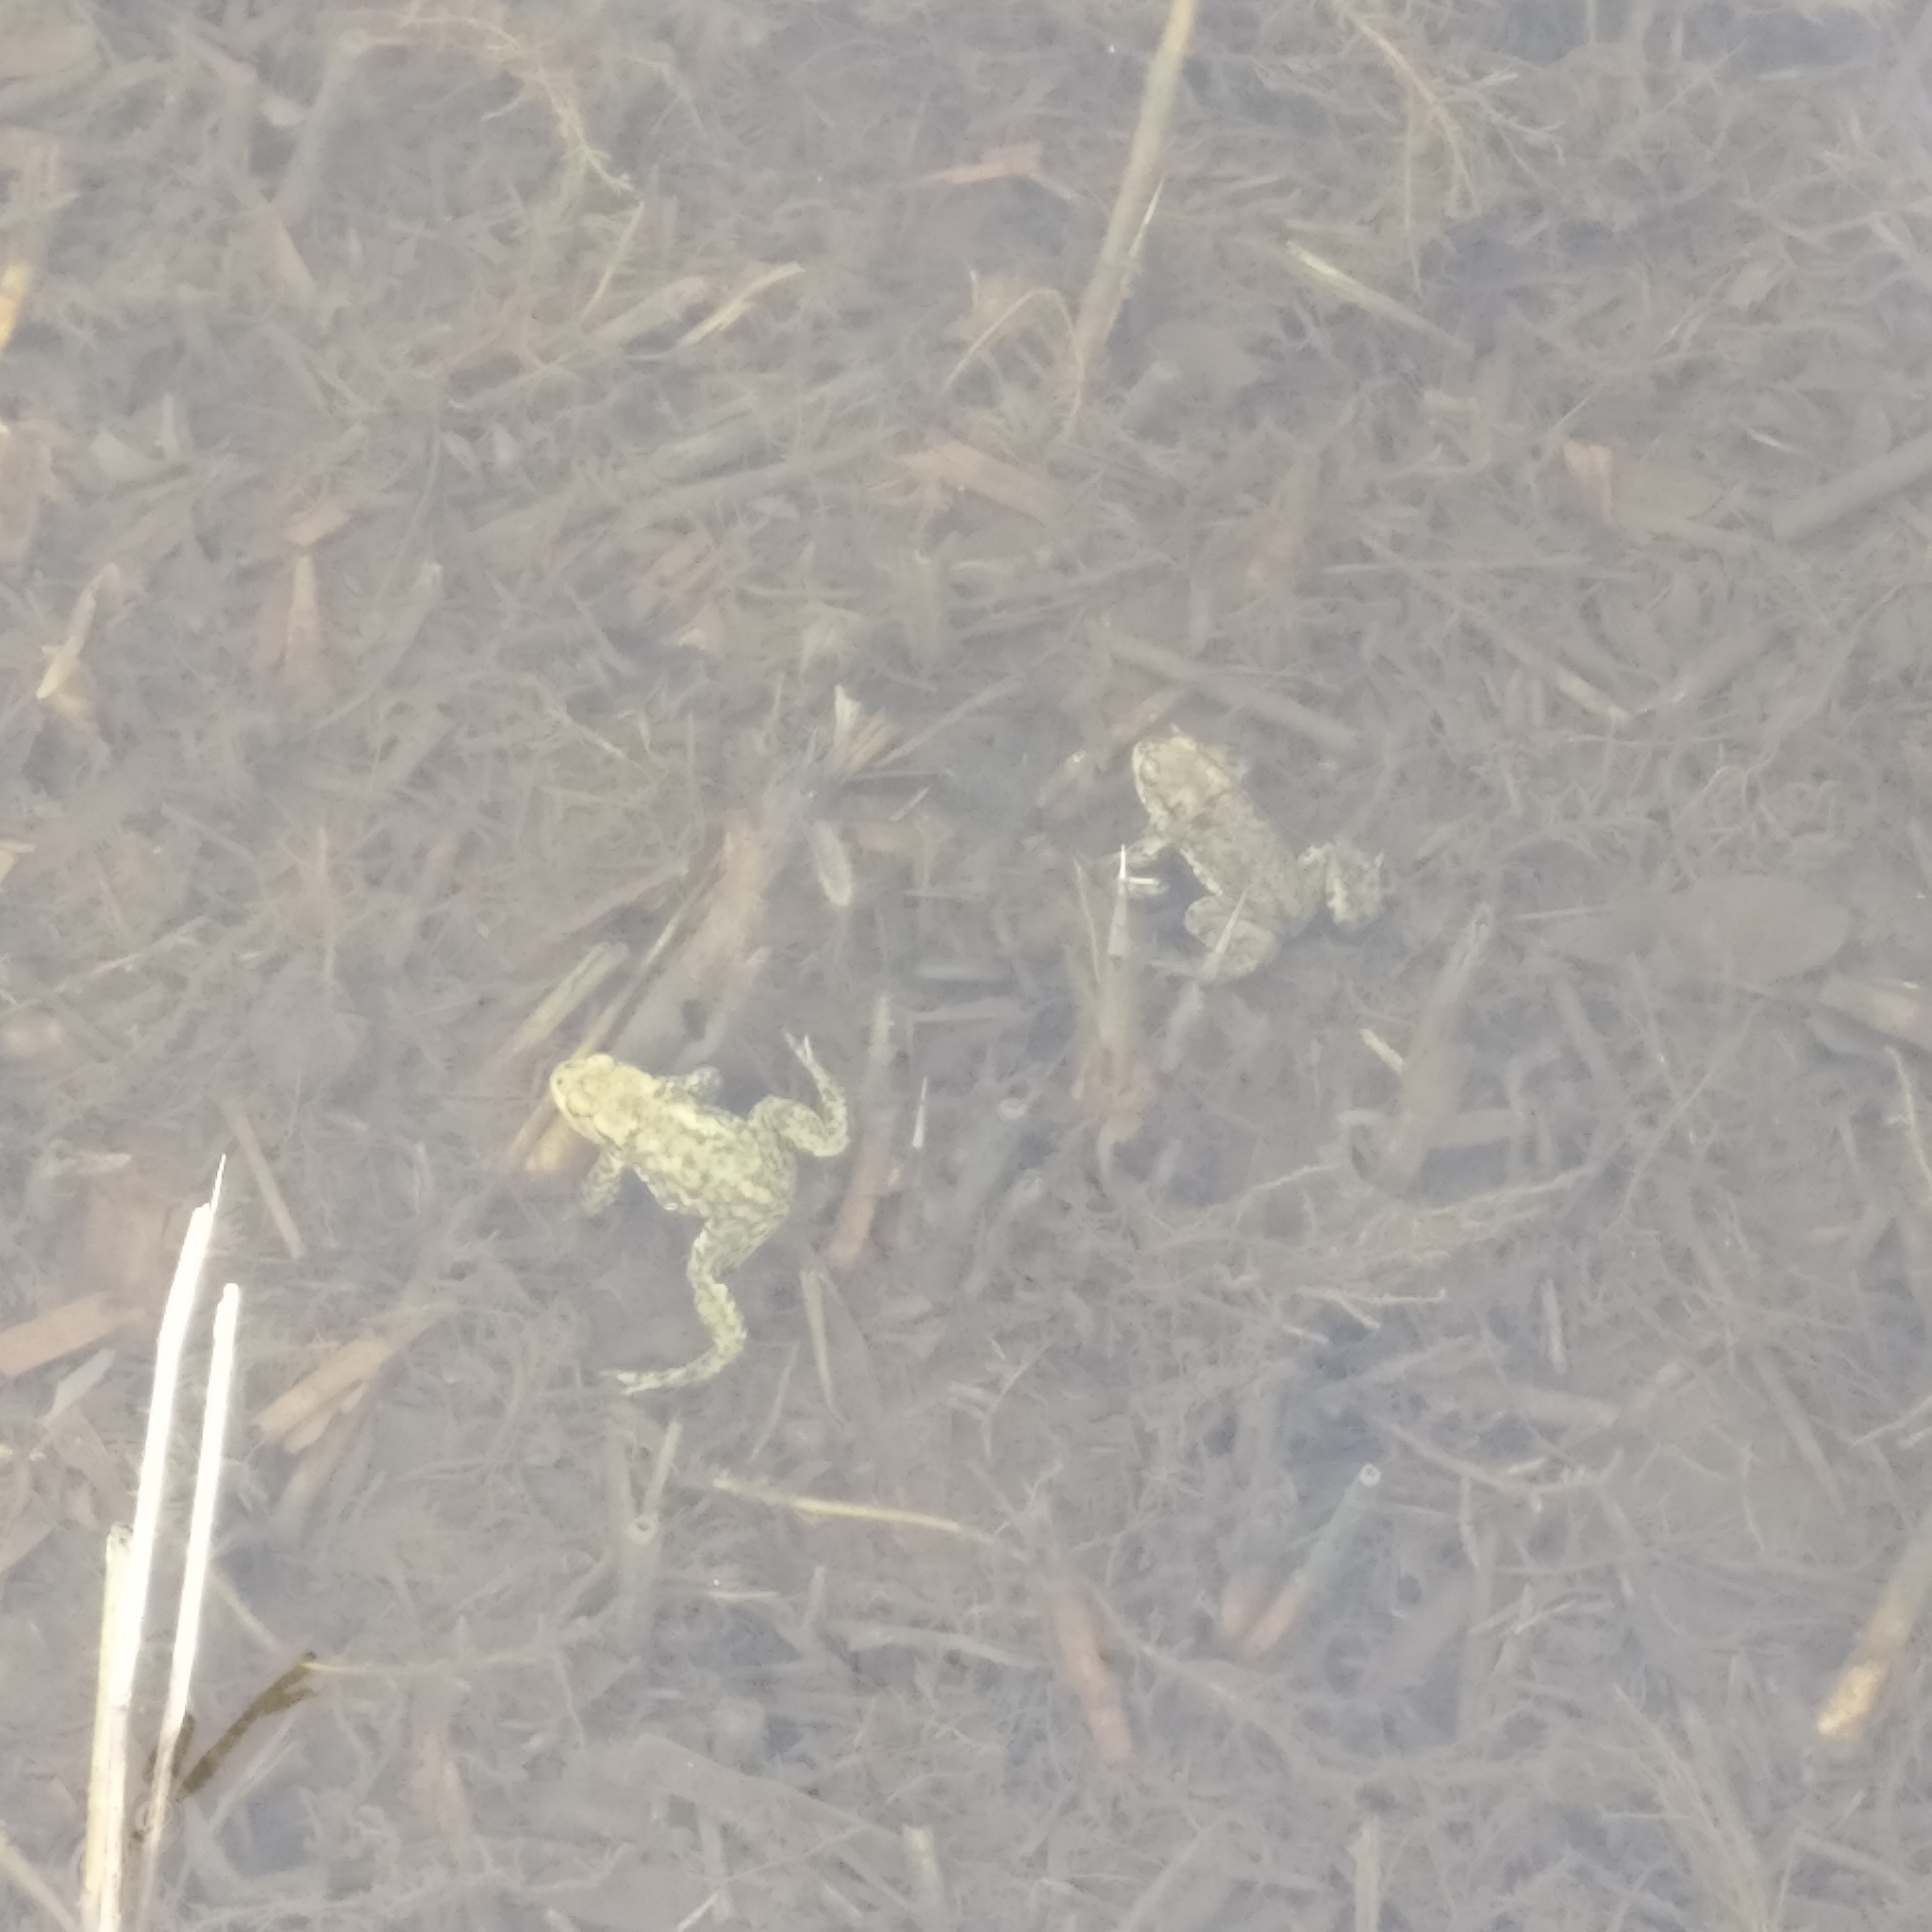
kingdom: Animalia
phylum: Chordata
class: Amphibia
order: Anura
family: Bufonidae
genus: Bufo
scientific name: Bufo bufo
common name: Common toad
